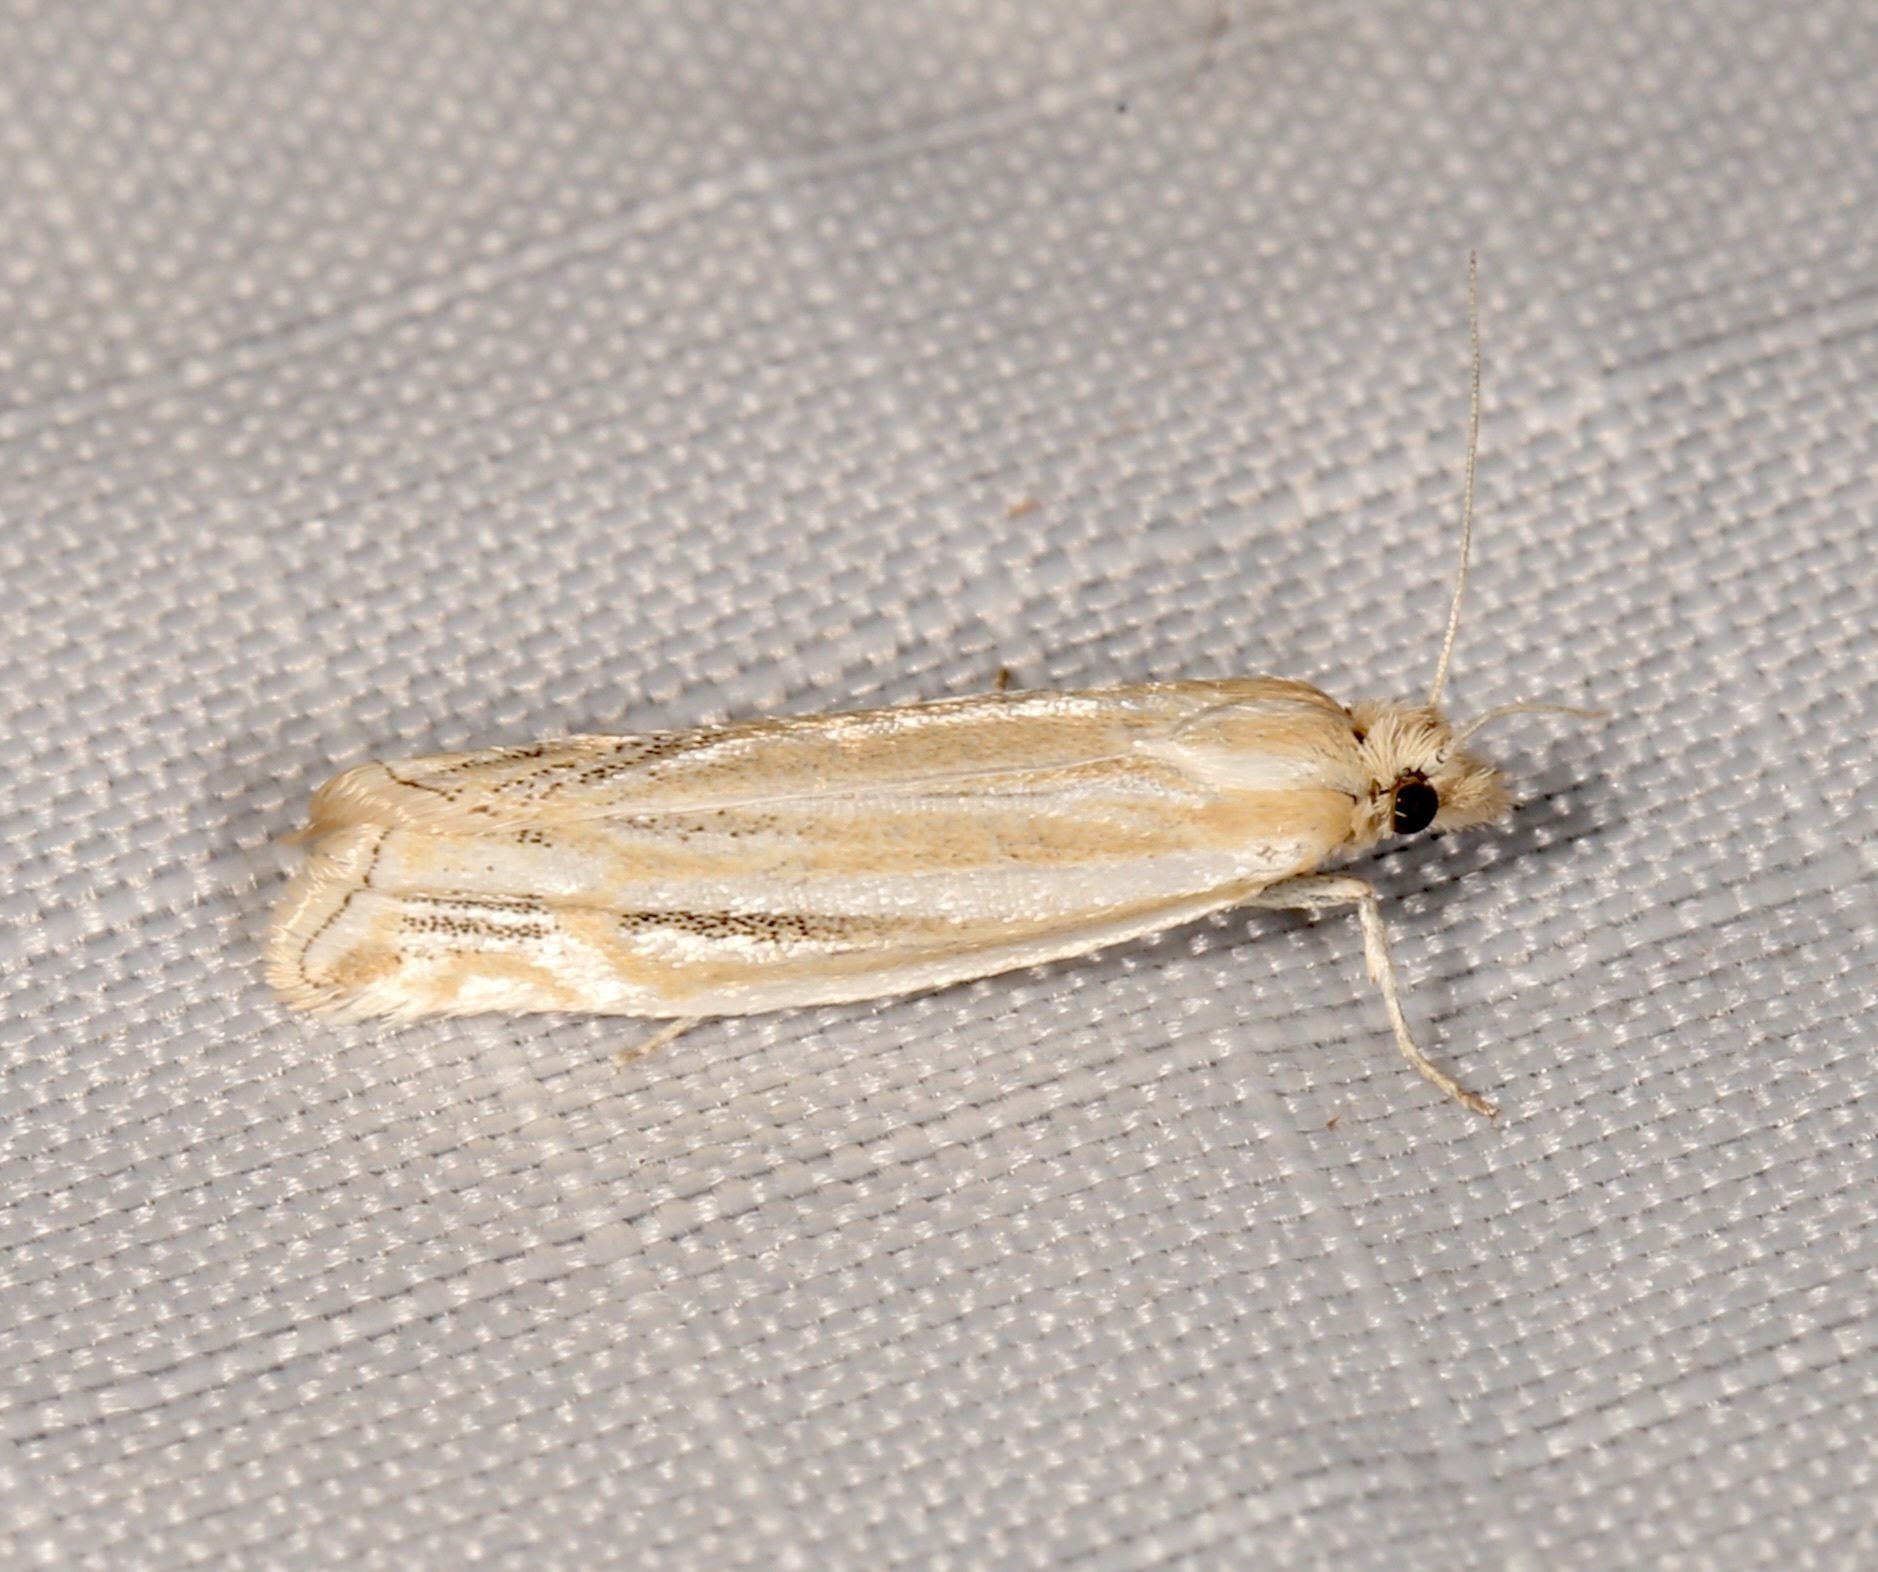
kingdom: Animalia
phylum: Arthropoda
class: Insecta
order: Lepidoptera
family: Tortricidae
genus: Pelochrista
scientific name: Pelochrista argenteana
